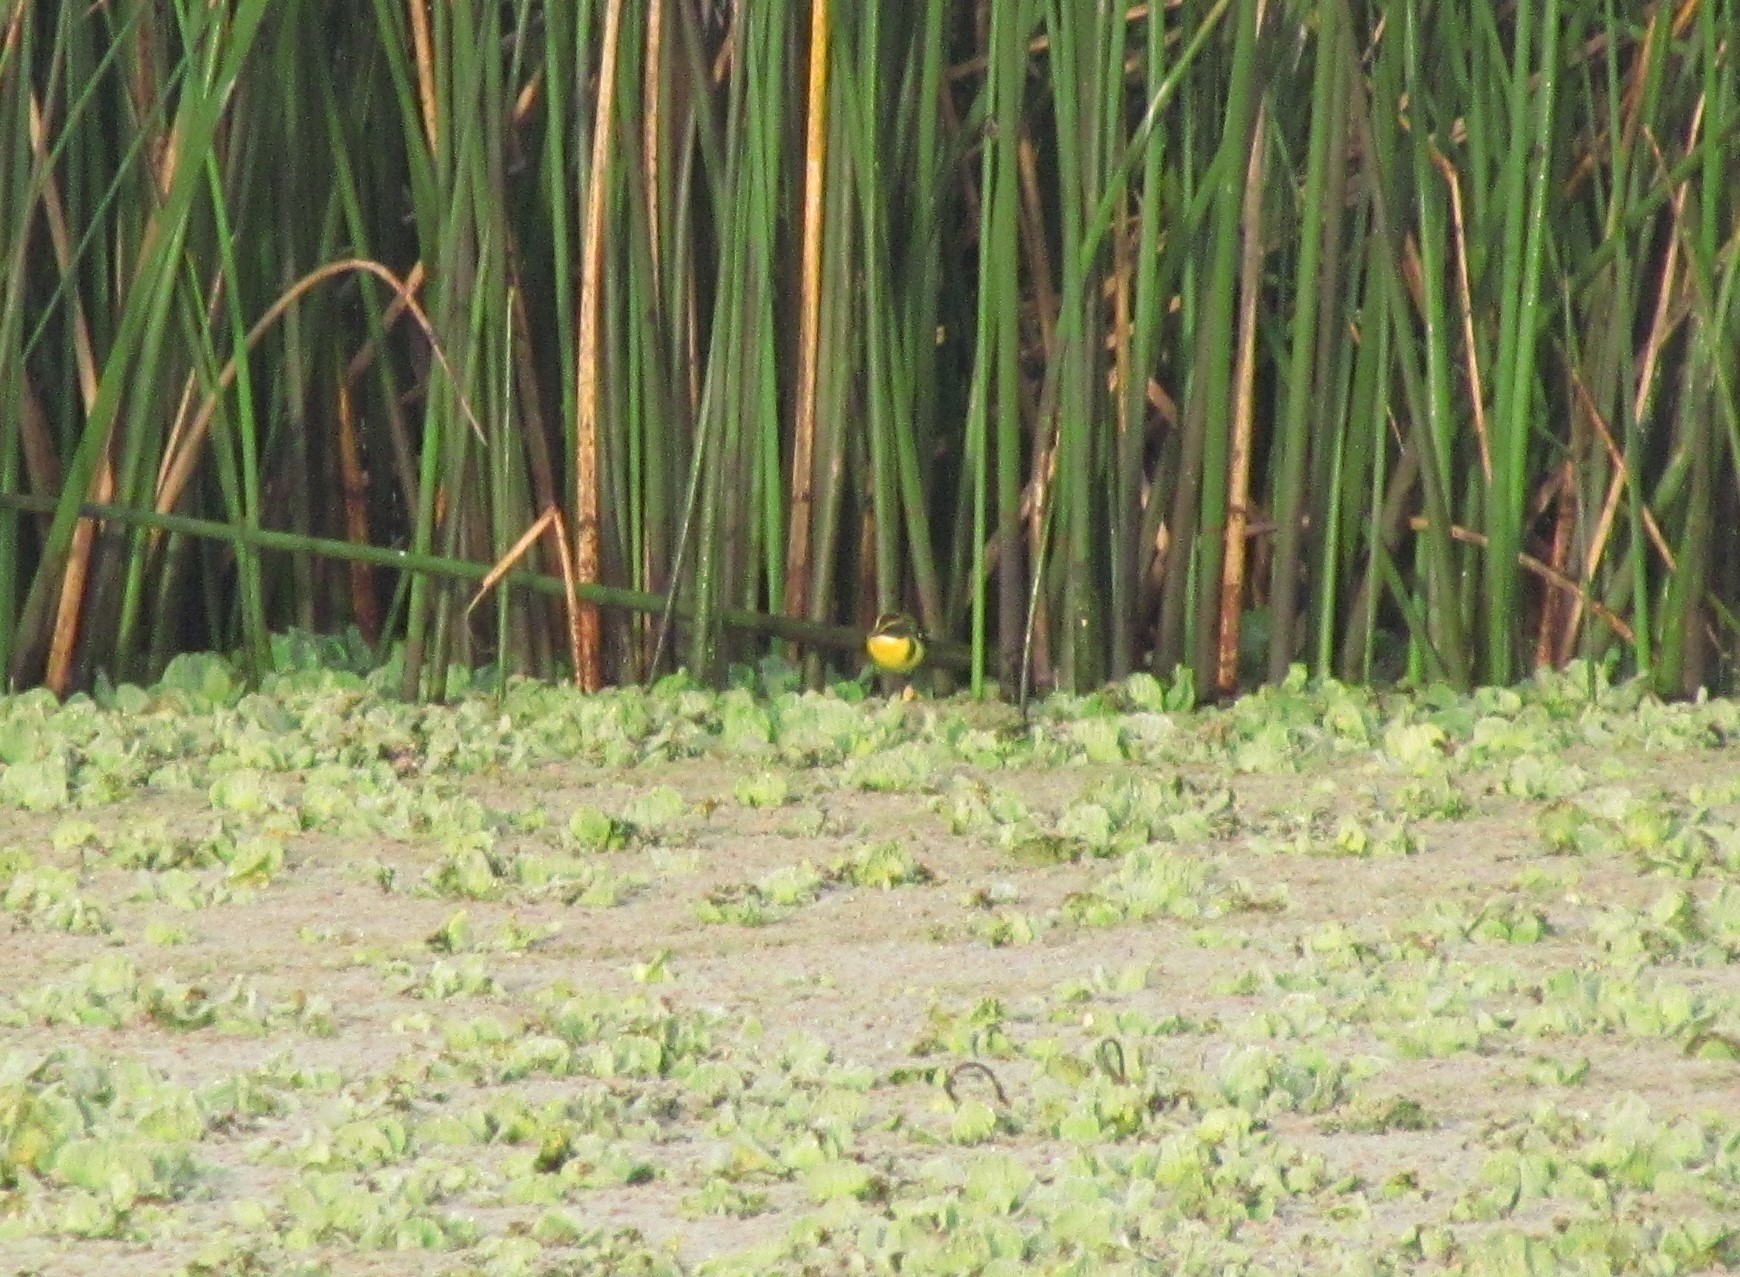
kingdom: Animalia
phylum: Chordata
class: Aves
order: Passeriformes
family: Tyrannidae
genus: Tachuris
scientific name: Tachuris rubrigastra
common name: Many-colored rush tyrant
